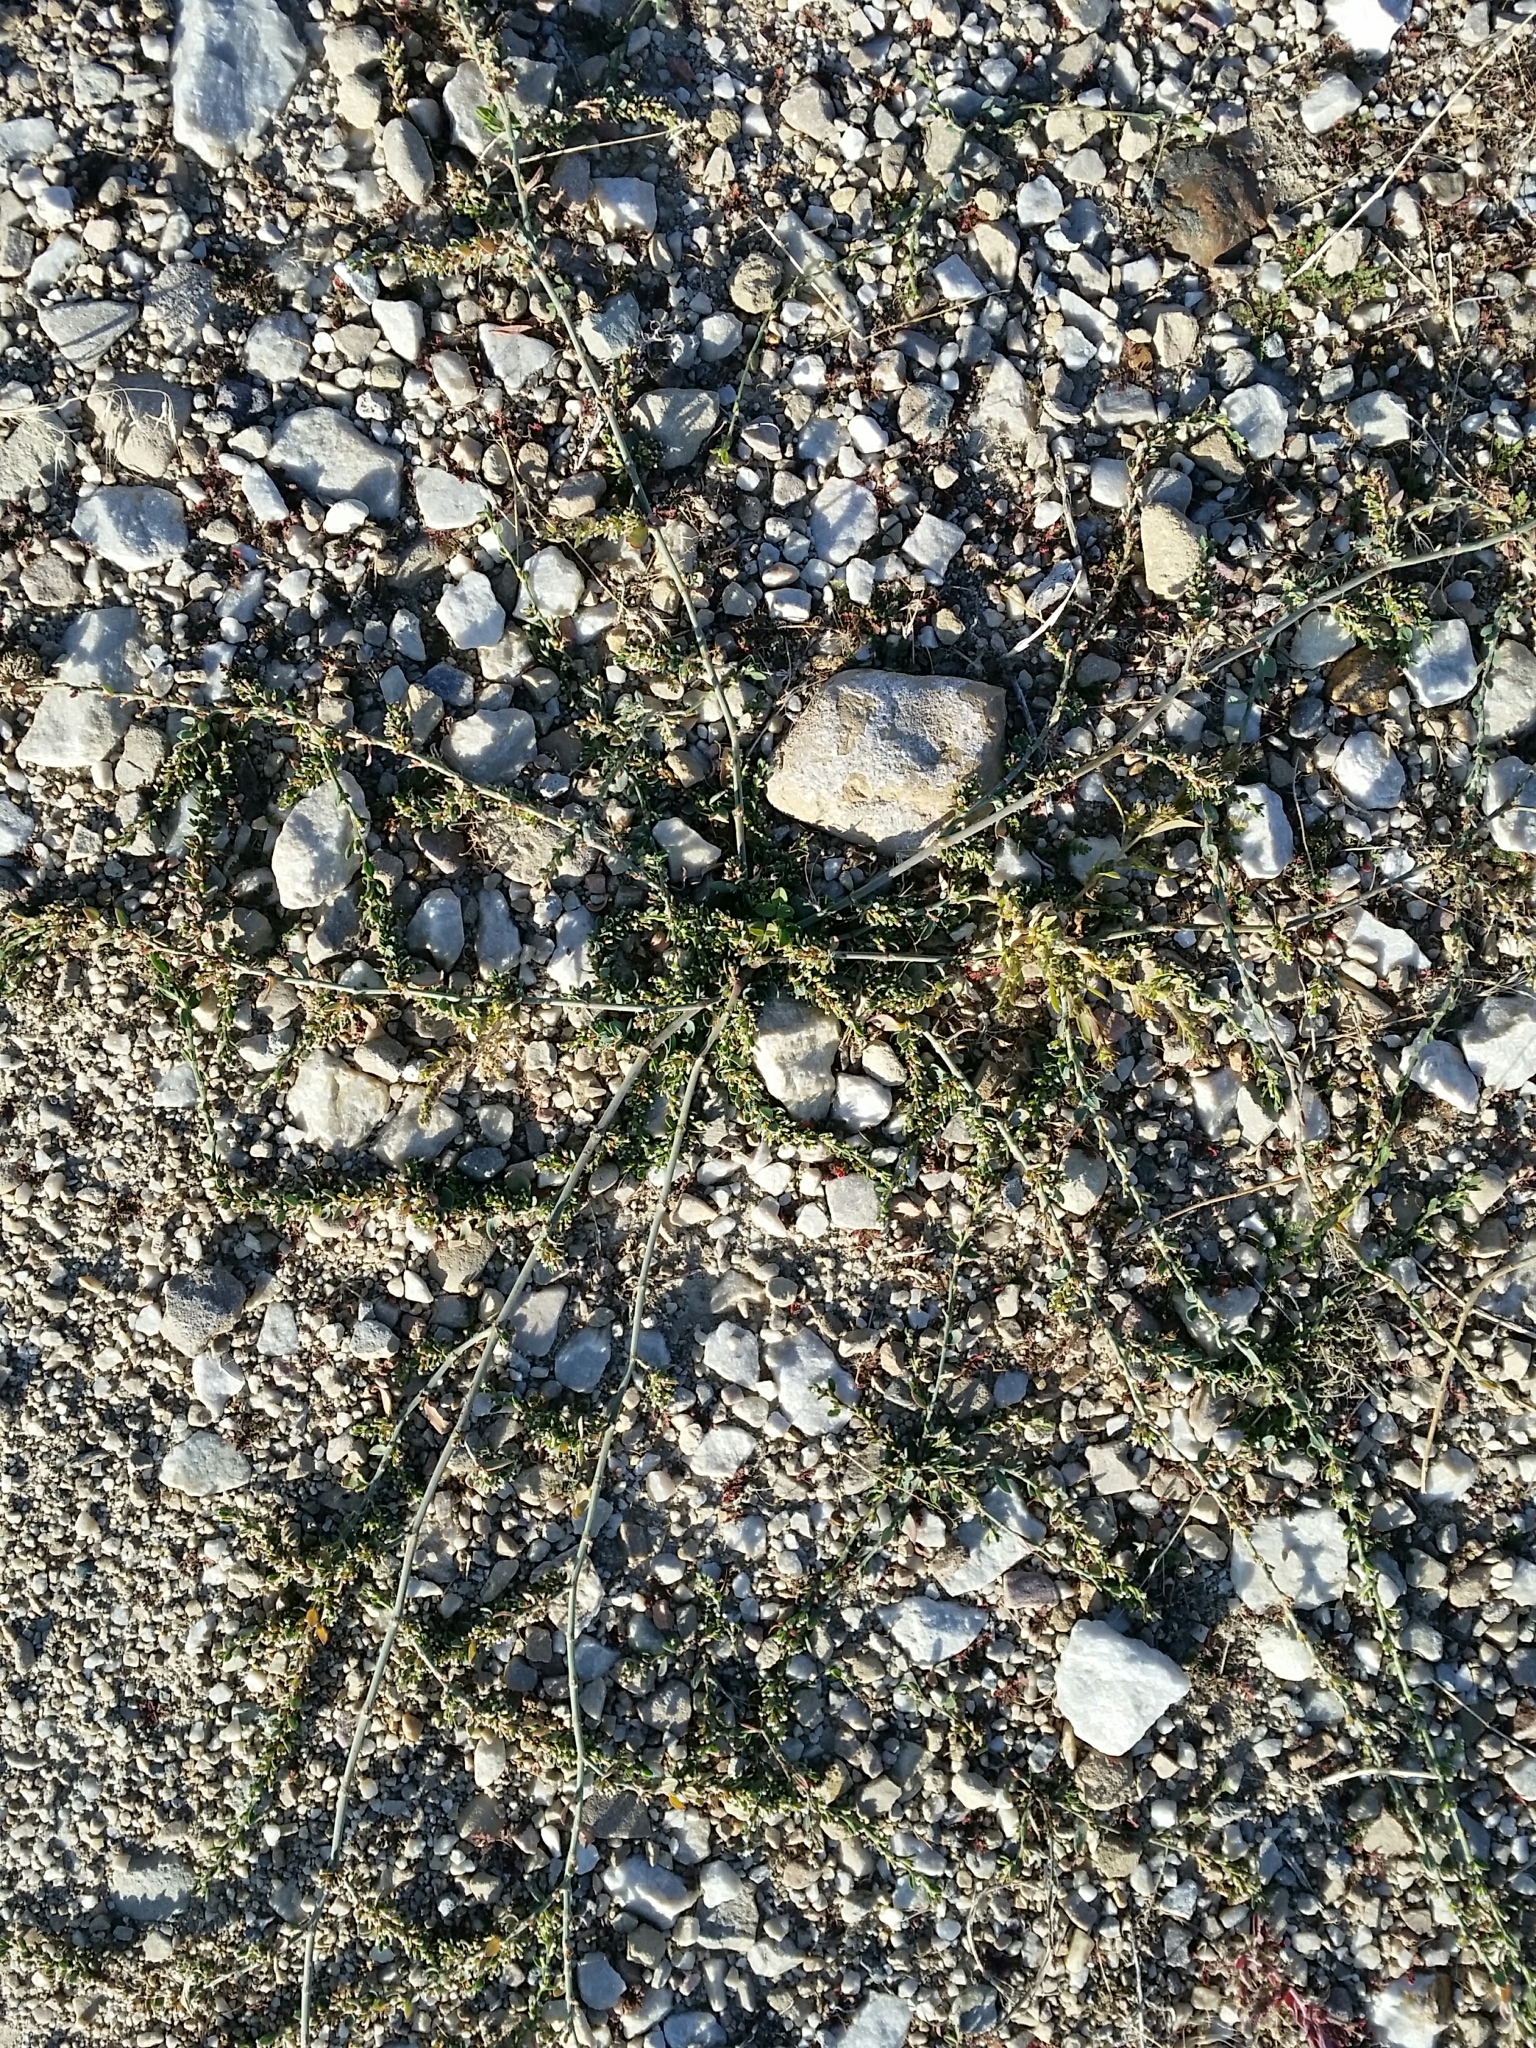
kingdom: Plantae
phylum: Tracheophyta
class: Magnoliopsida
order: Caryophyllales
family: Polygonaceae
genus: Polygonum
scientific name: Polygonum aviculare
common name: Prostrate knotweed
